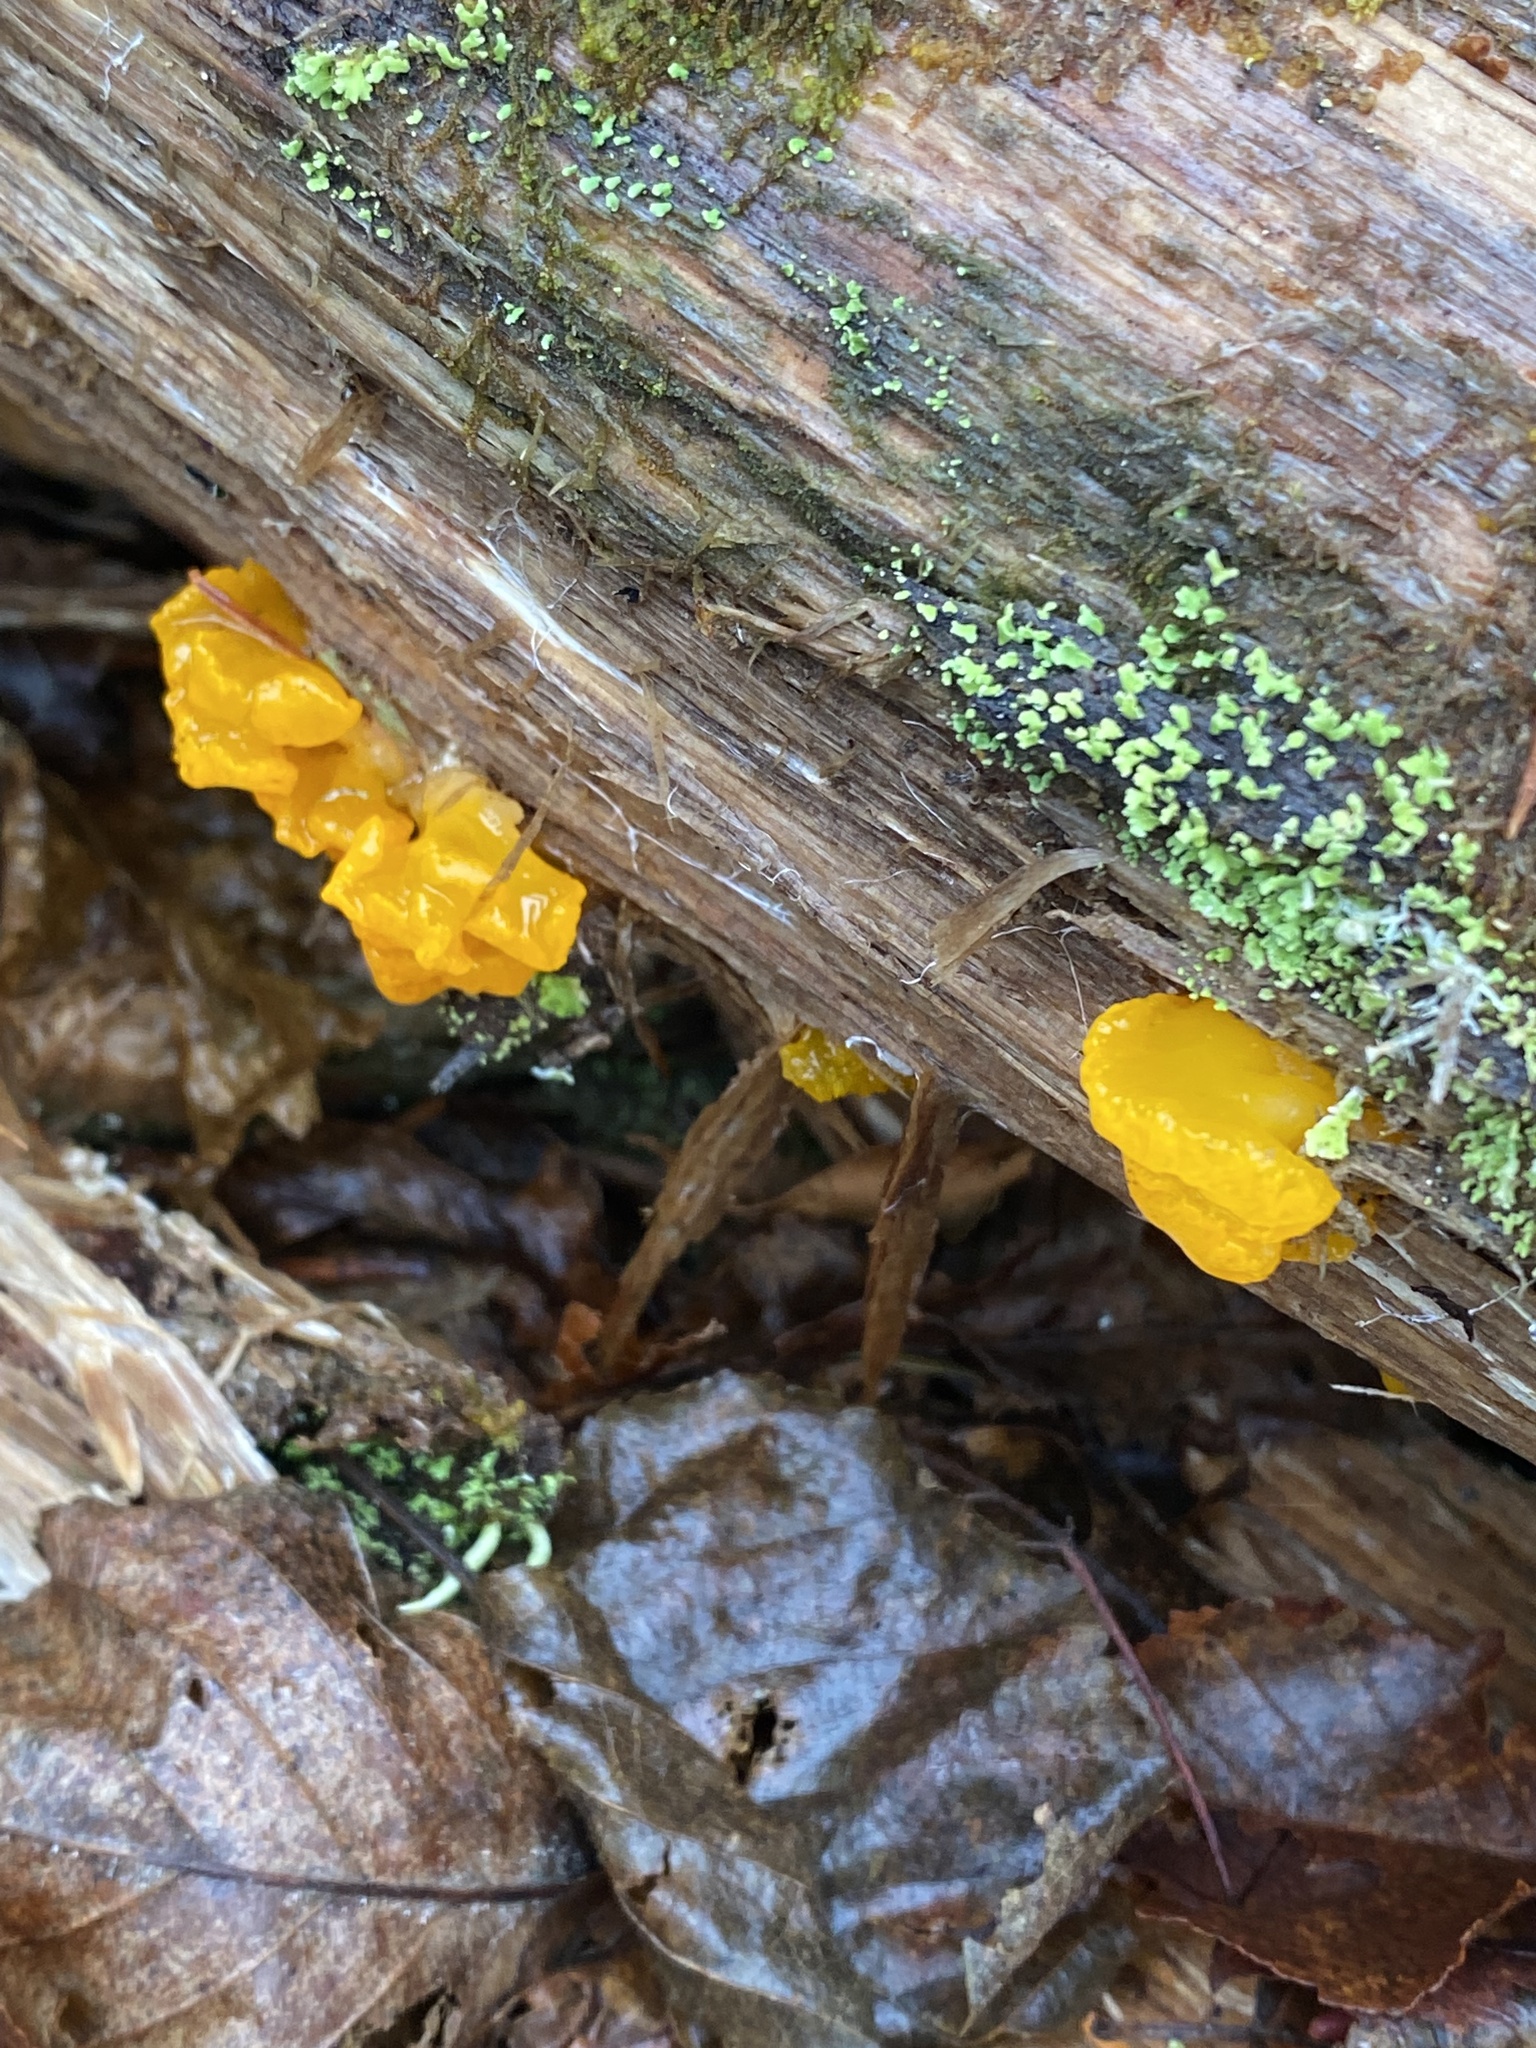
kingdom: Fungi
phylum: Basidiomycota
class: Dacrymycetes
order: Dacrymycetales
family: Dacrymycetaceae
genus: Dacrymyces
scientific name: Dacrymyces chrysospermus
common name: Orange jelly spot
